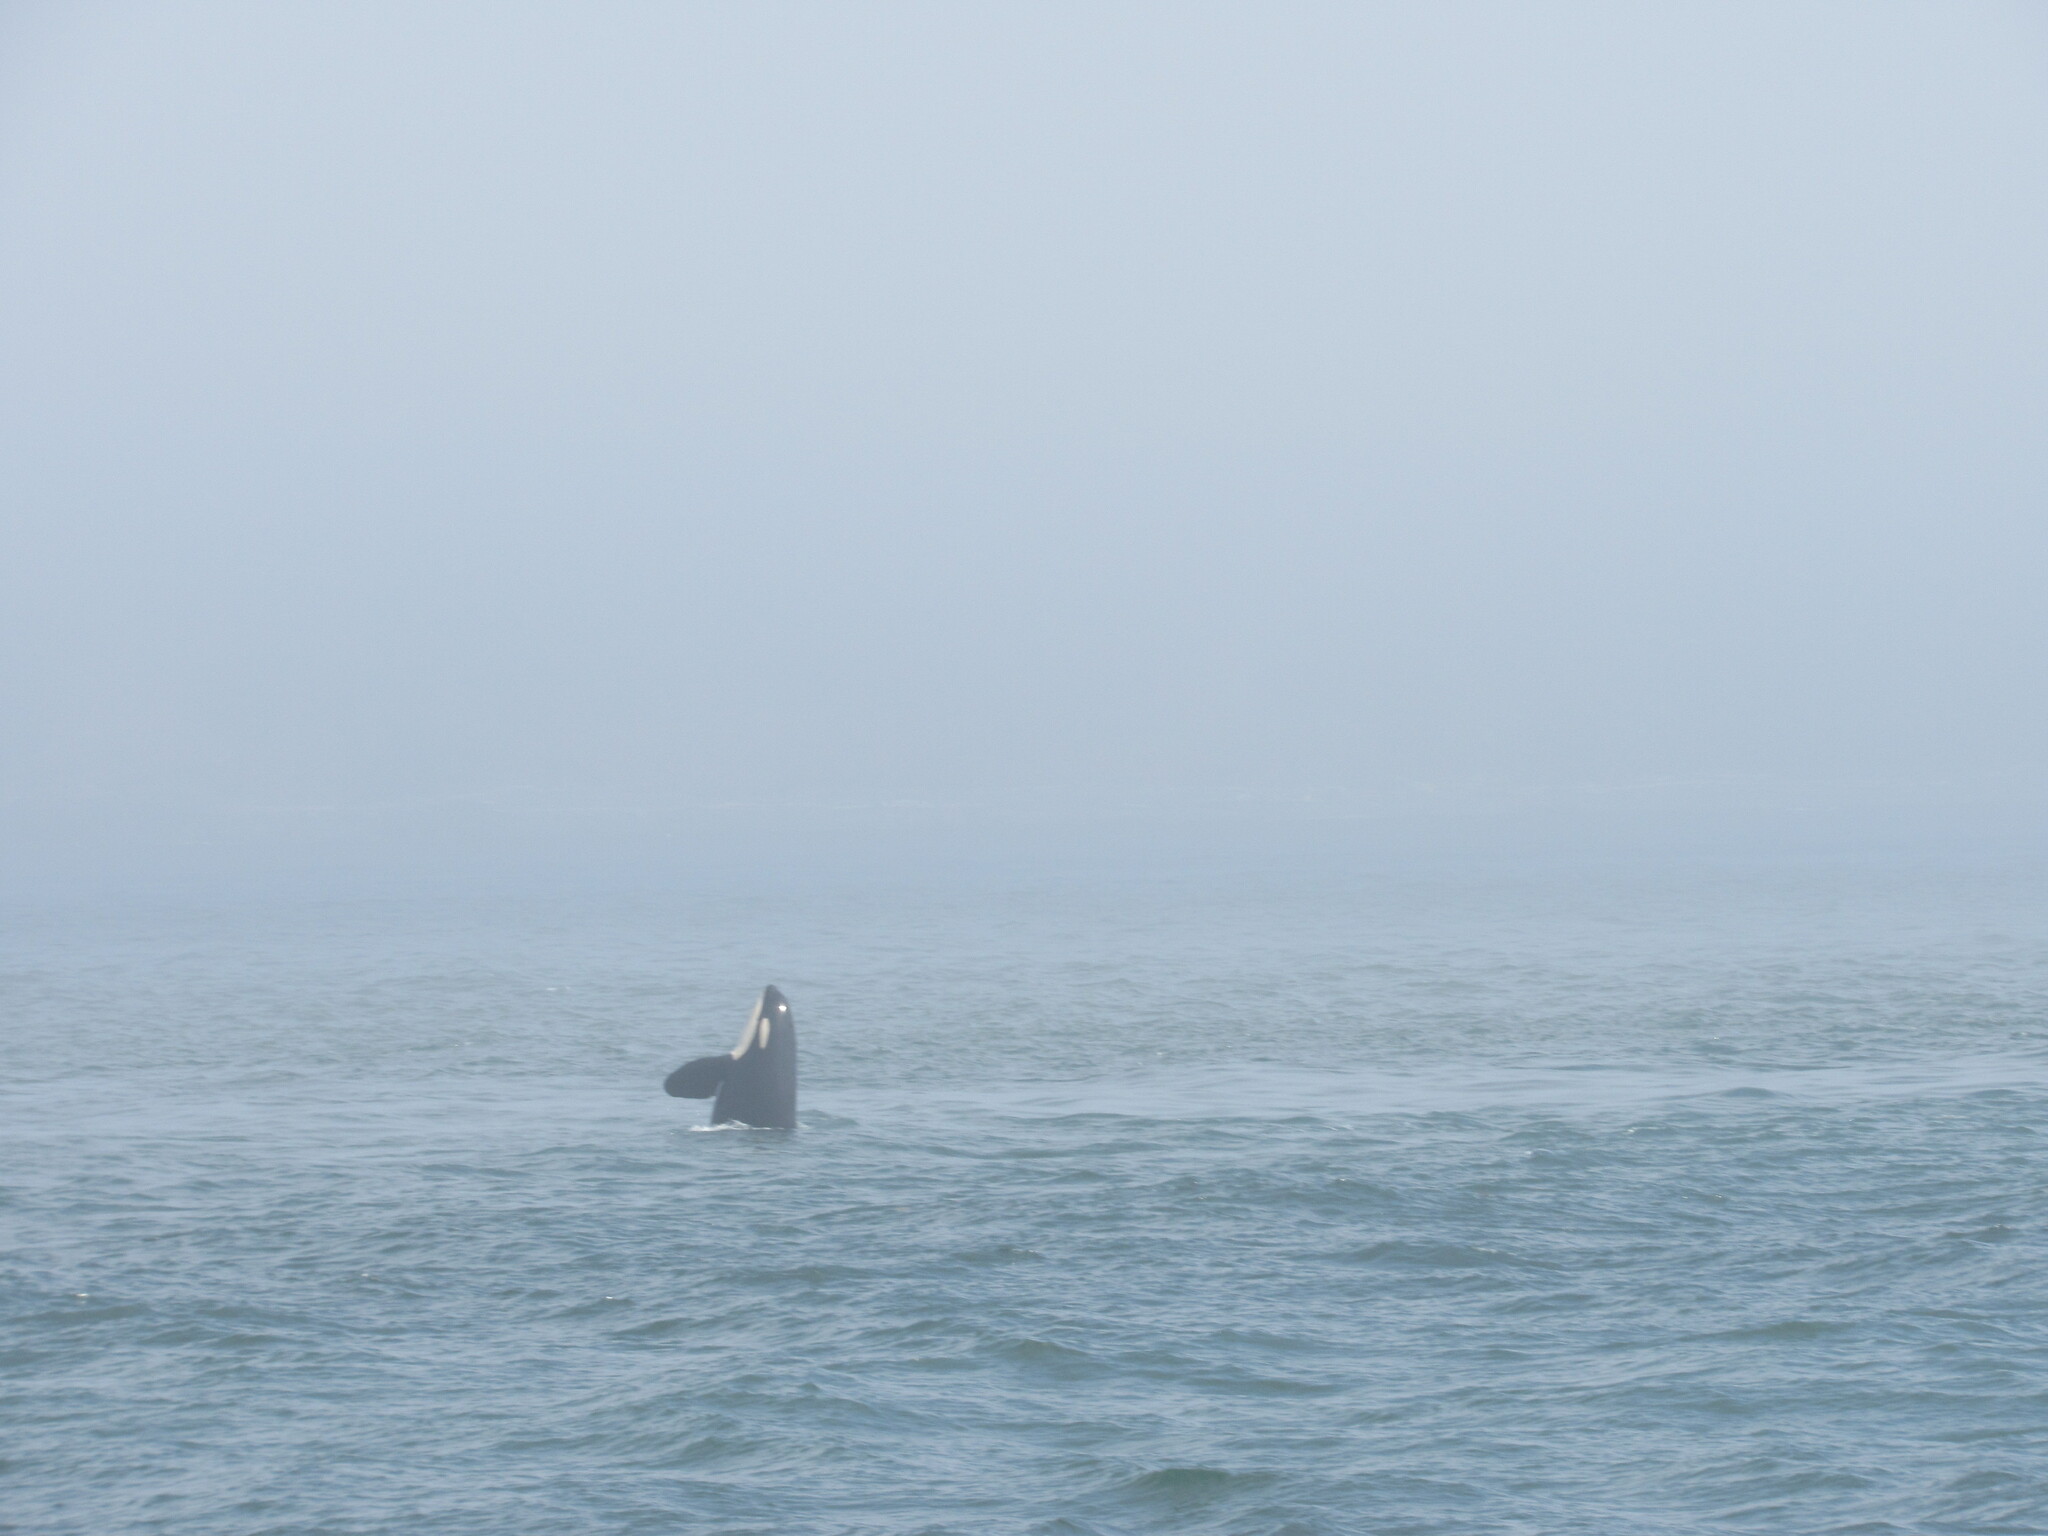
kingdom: Animalia
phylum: Chordata
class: Mammalia
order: Cetacea
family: Delphinidae
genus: Orcinus
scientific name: Orcinus orca
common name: Killer whale
